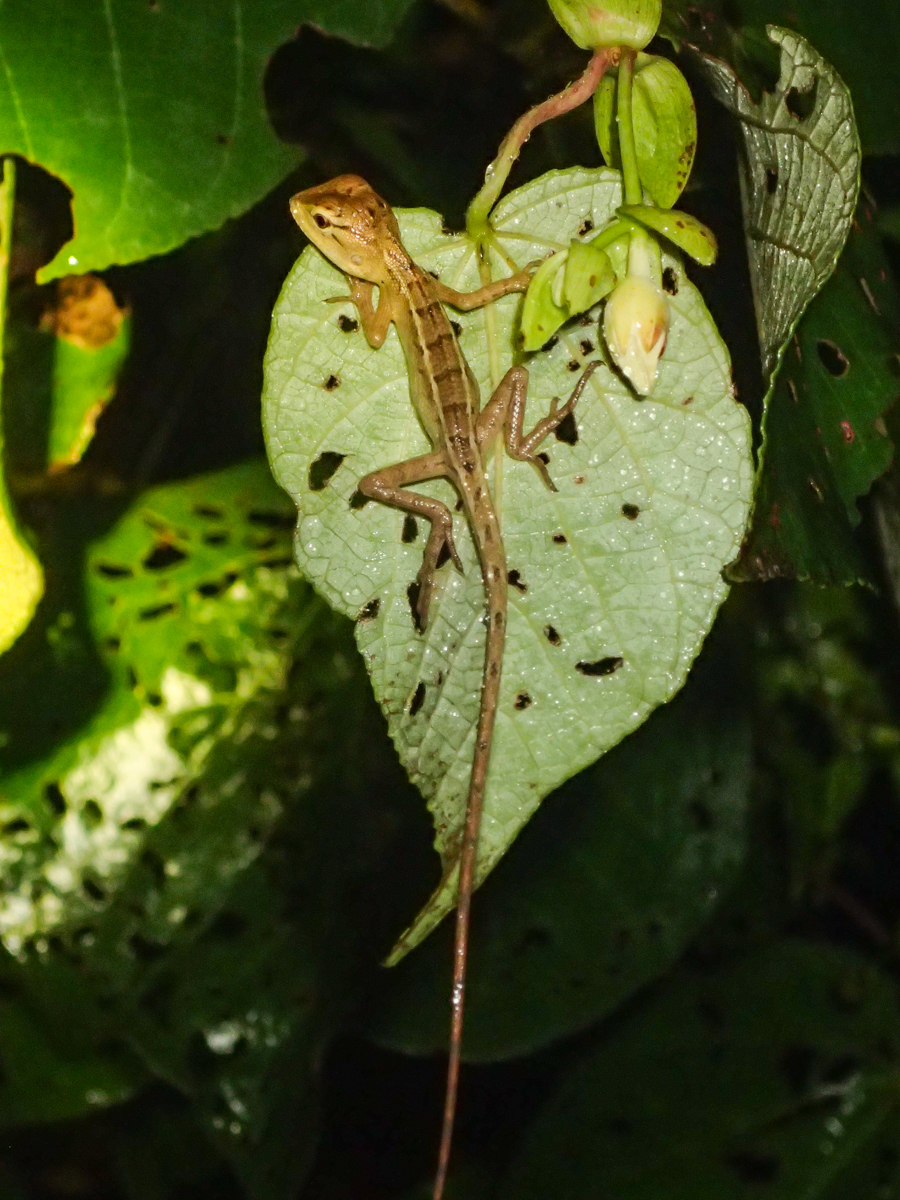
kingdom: Animalia
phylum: Chordata
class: Squamata
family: Agamidae
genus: Calotes
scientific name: Calotes versicolor
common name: Oriental garden lizard
